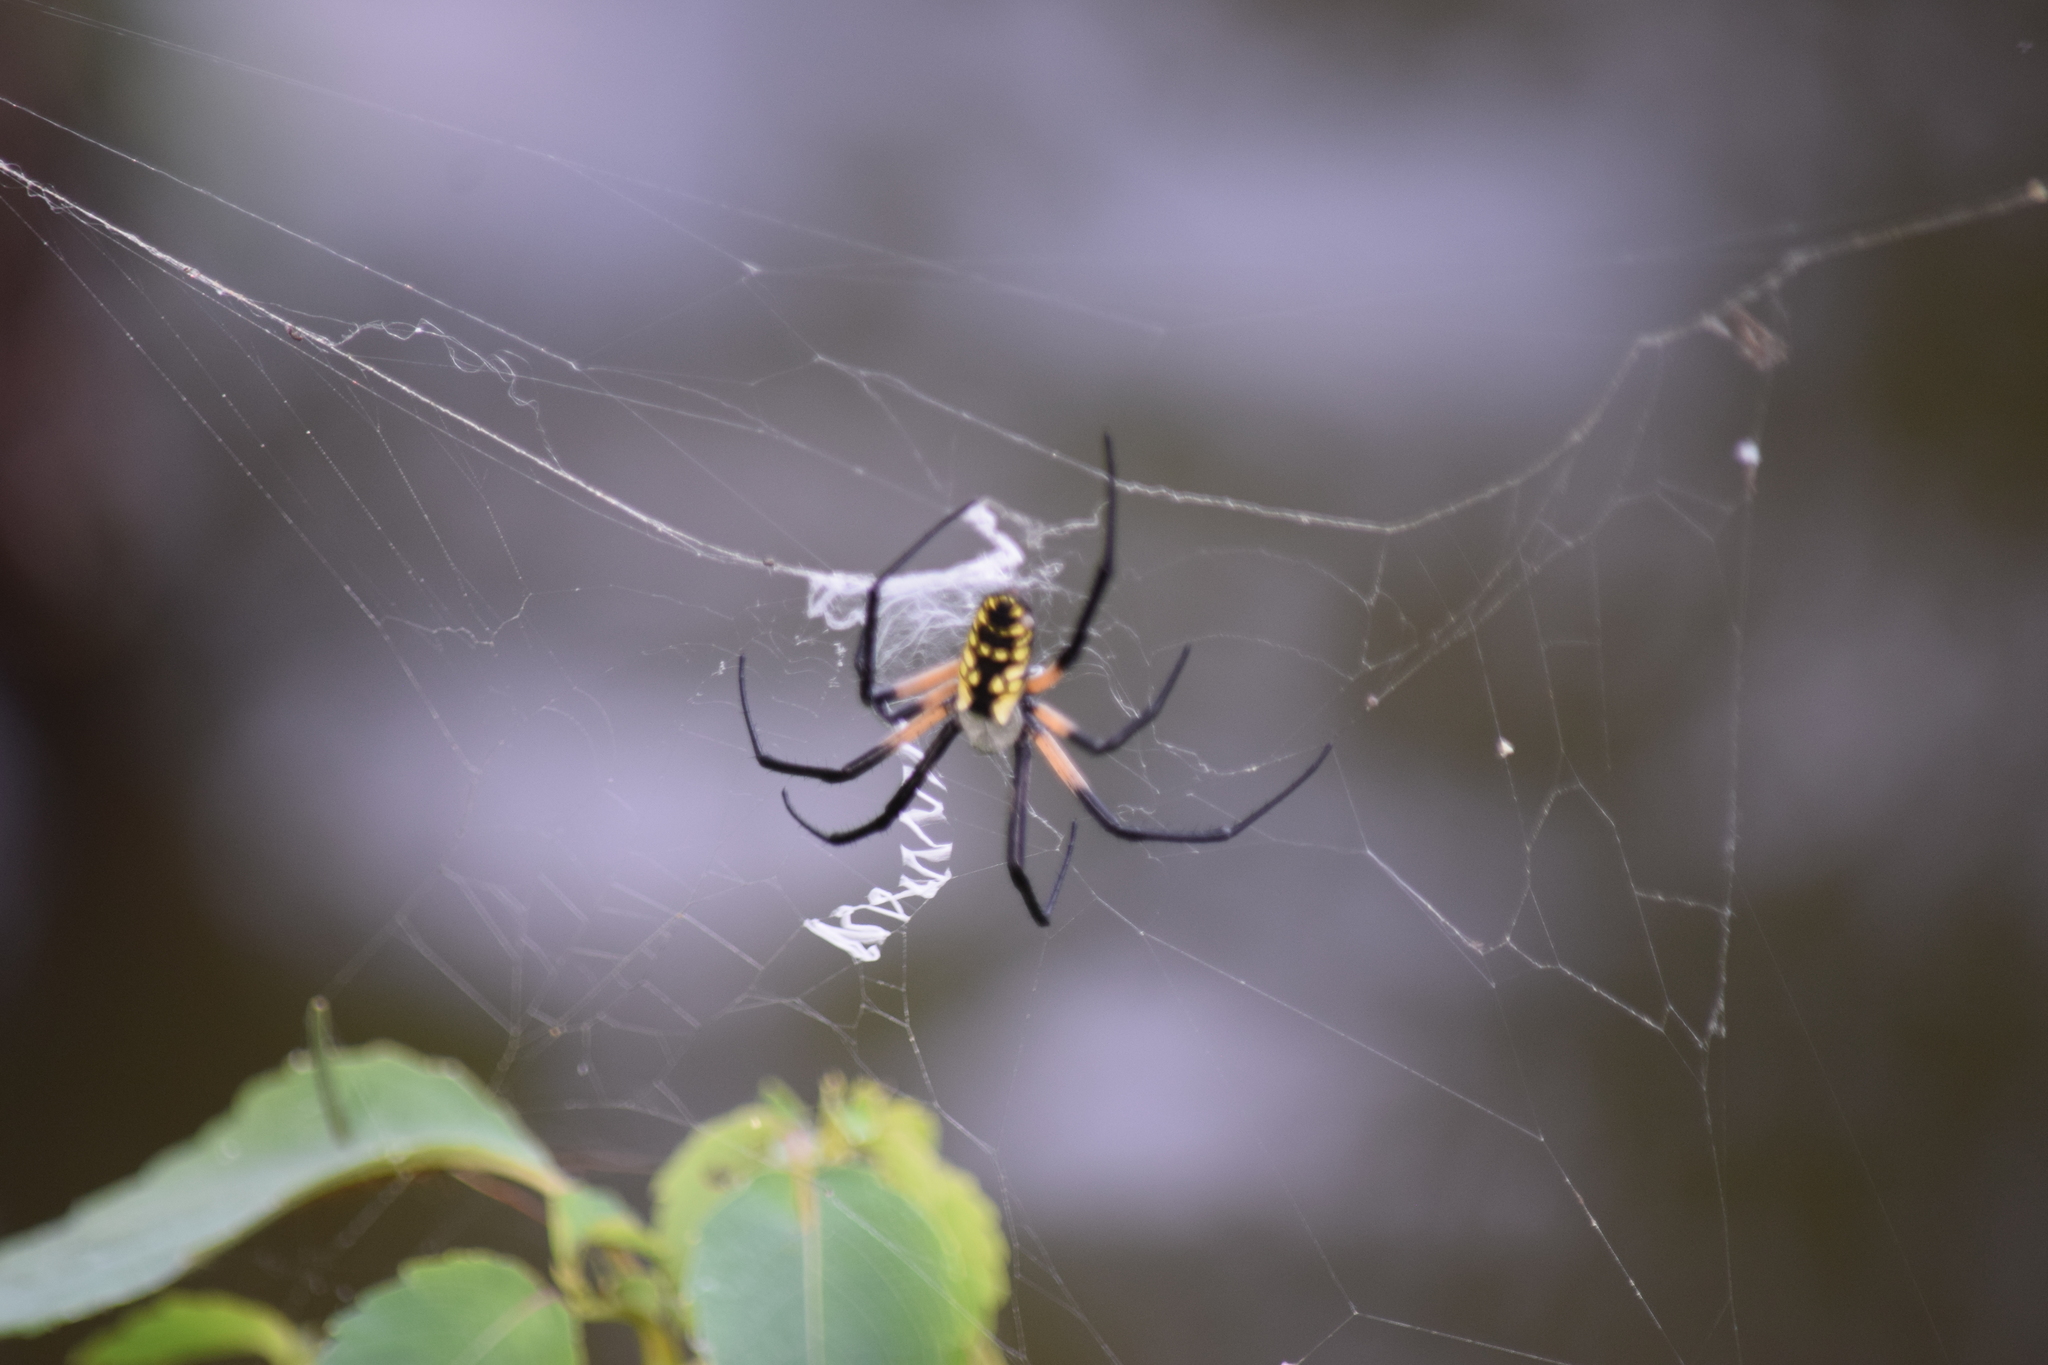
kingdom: Animalia
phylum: Arthropoda
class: Arachnida
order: Araneae
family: Araneidae
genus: Argiope
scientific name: Argiope aurantia
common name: Orb weavers
